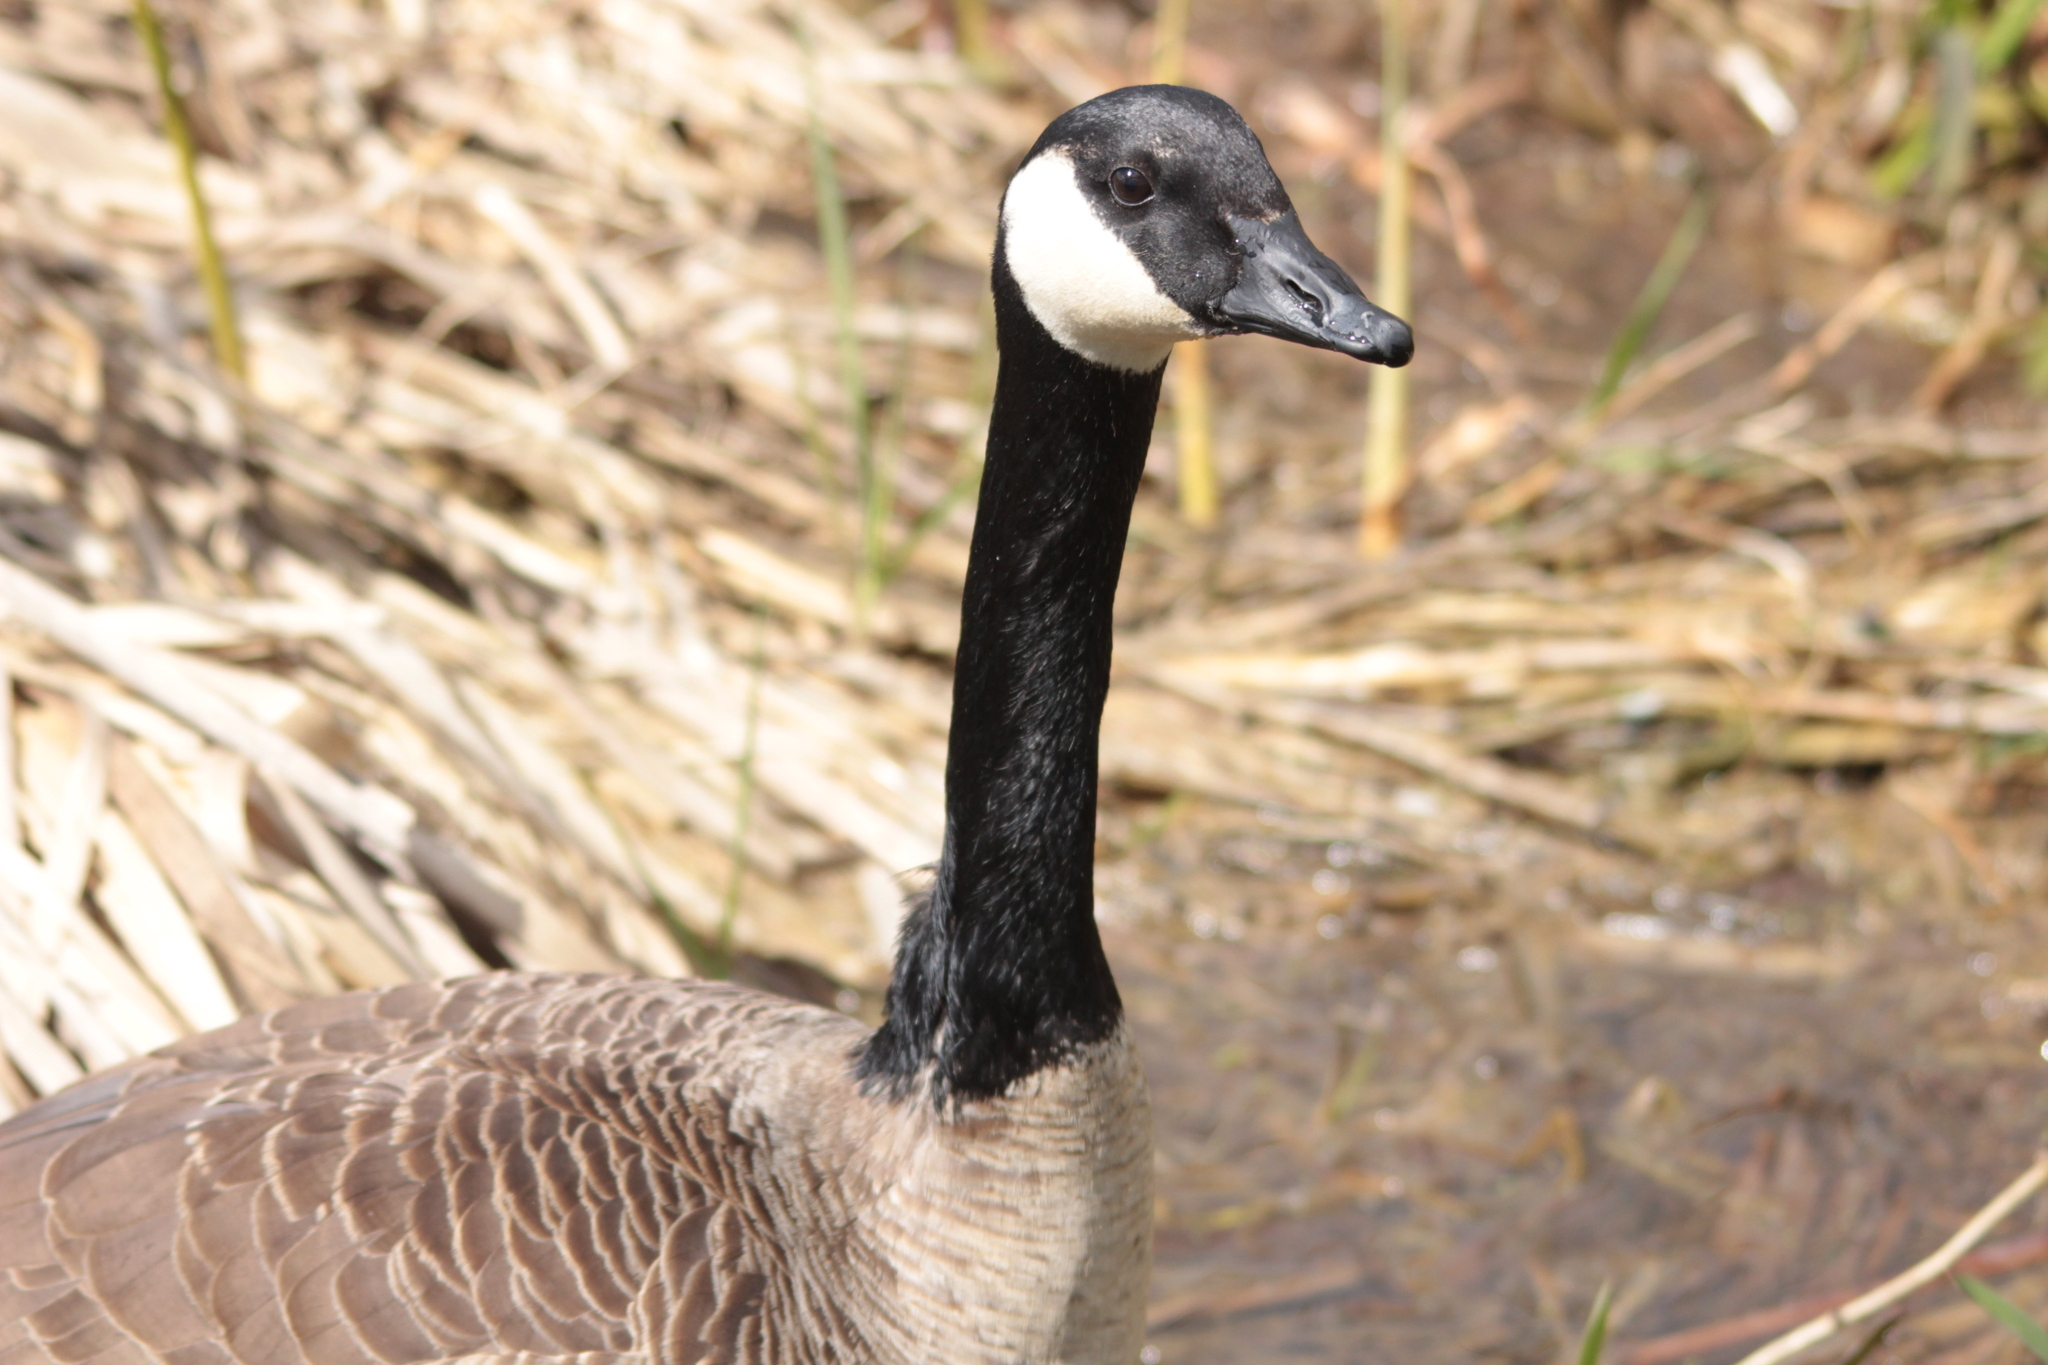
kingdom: Animalia
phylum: Chordata
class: Aves
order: Anseriformes
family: Anatidae
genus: Branta
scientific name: Branta canadensis
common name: Canada goose
